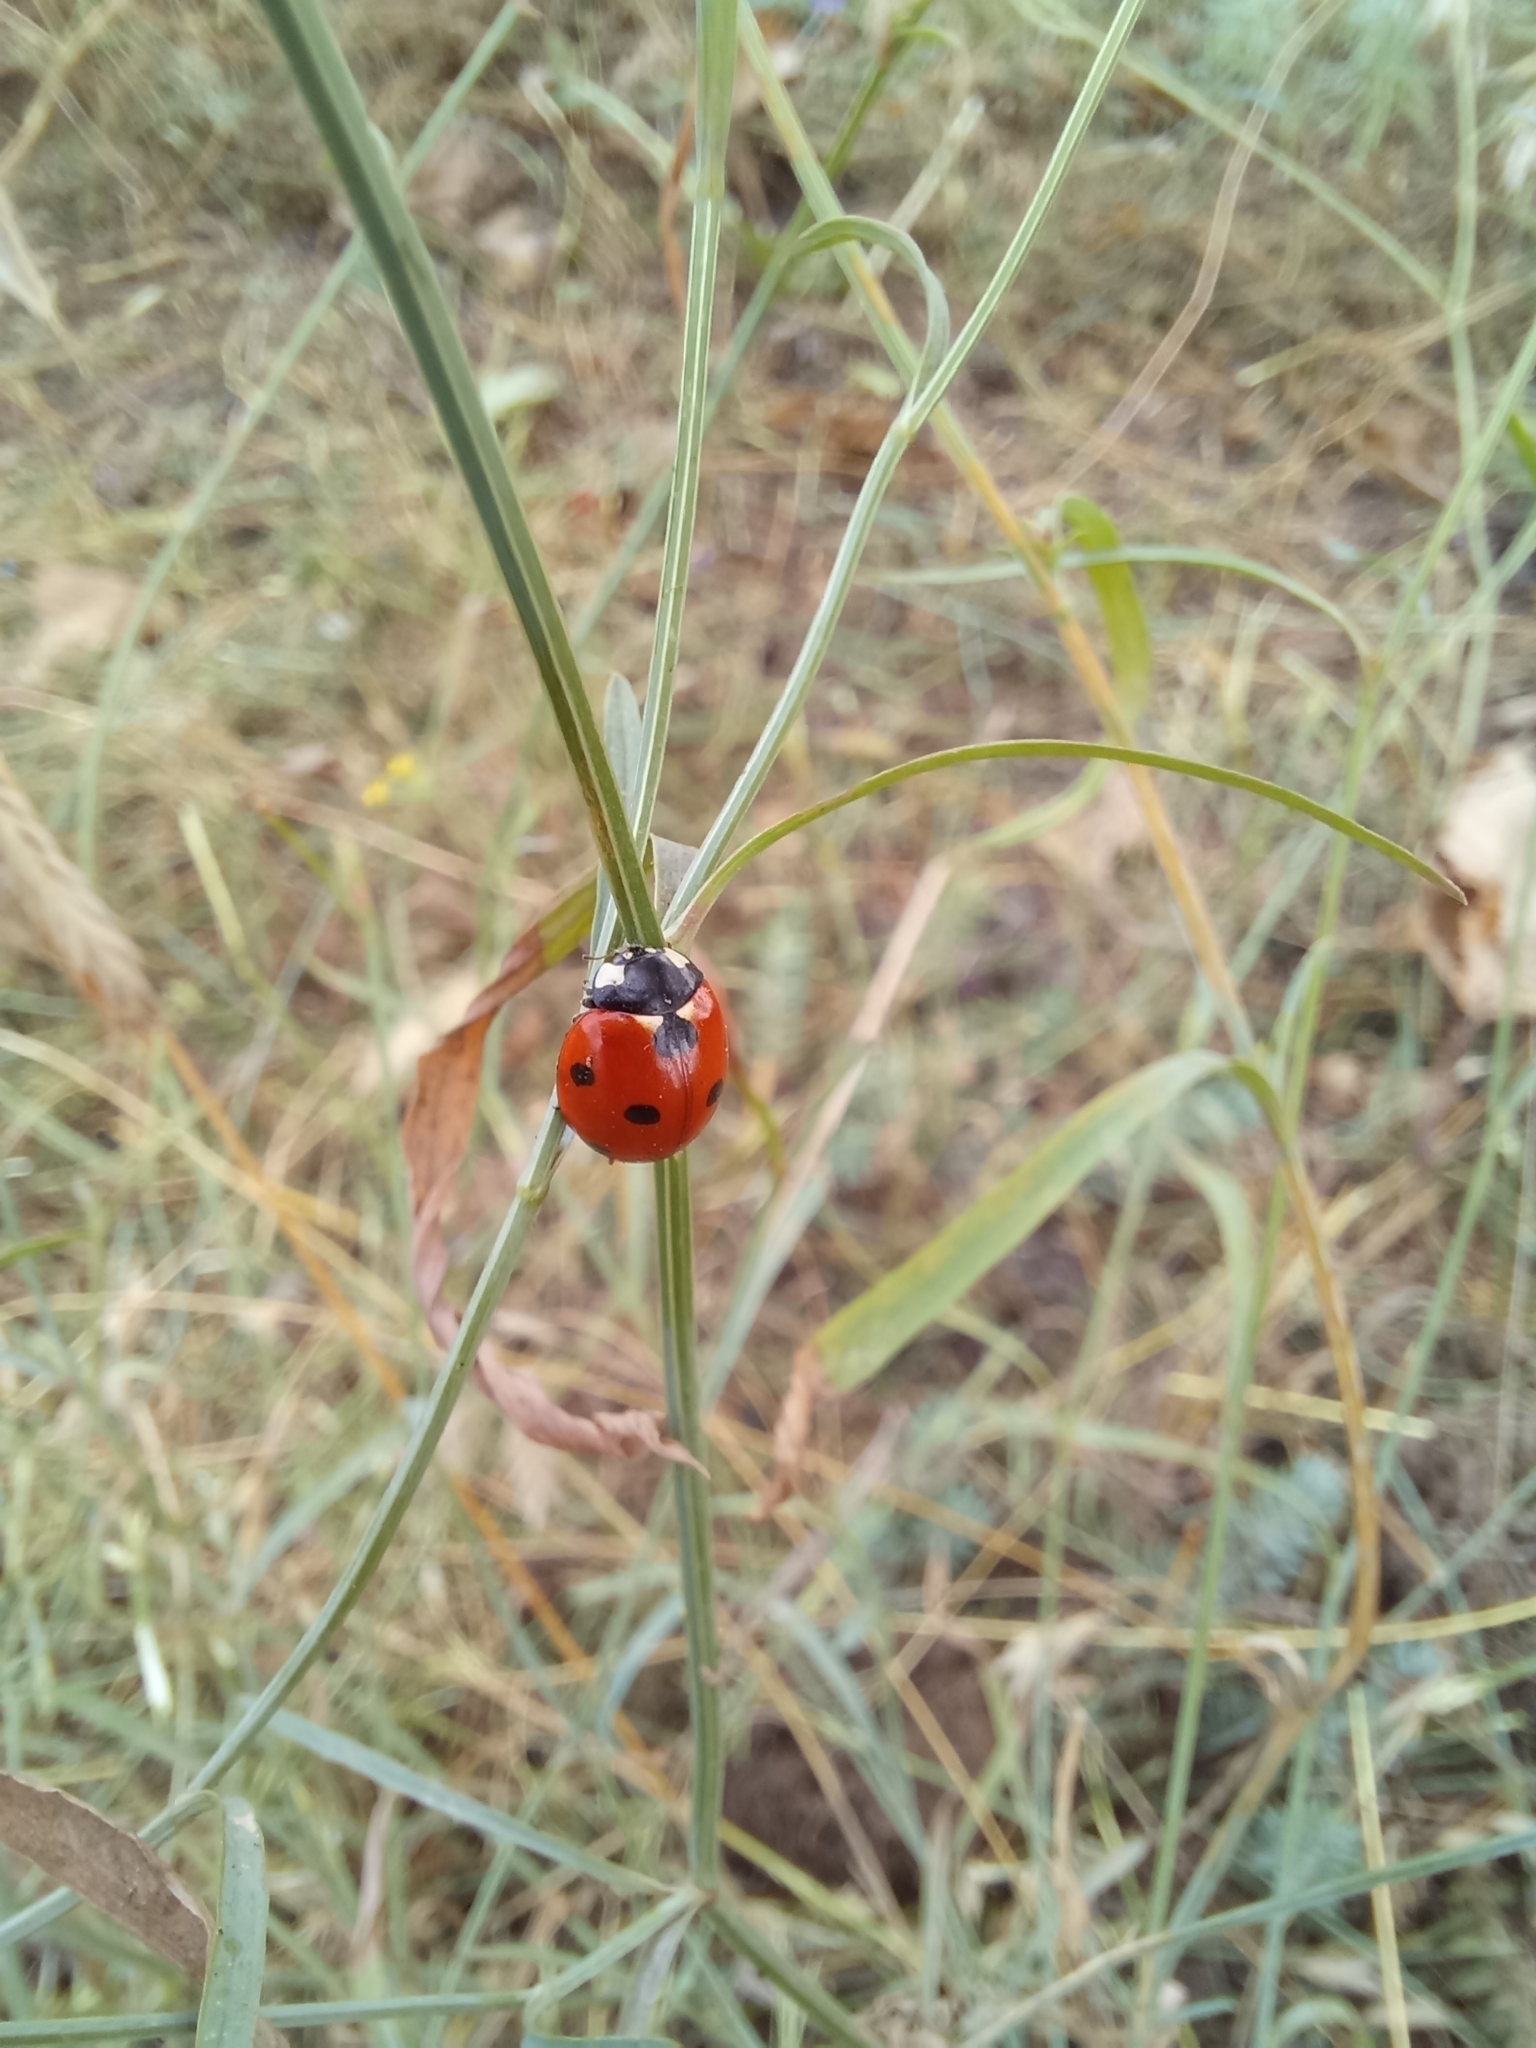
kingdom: Animalia
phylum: Arthropoda
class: Insecta
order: Coleoptera
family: Coccinellidae
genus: Coccinella
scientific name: Coccinella septempunctata
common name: Sevenspotted lady beetle
